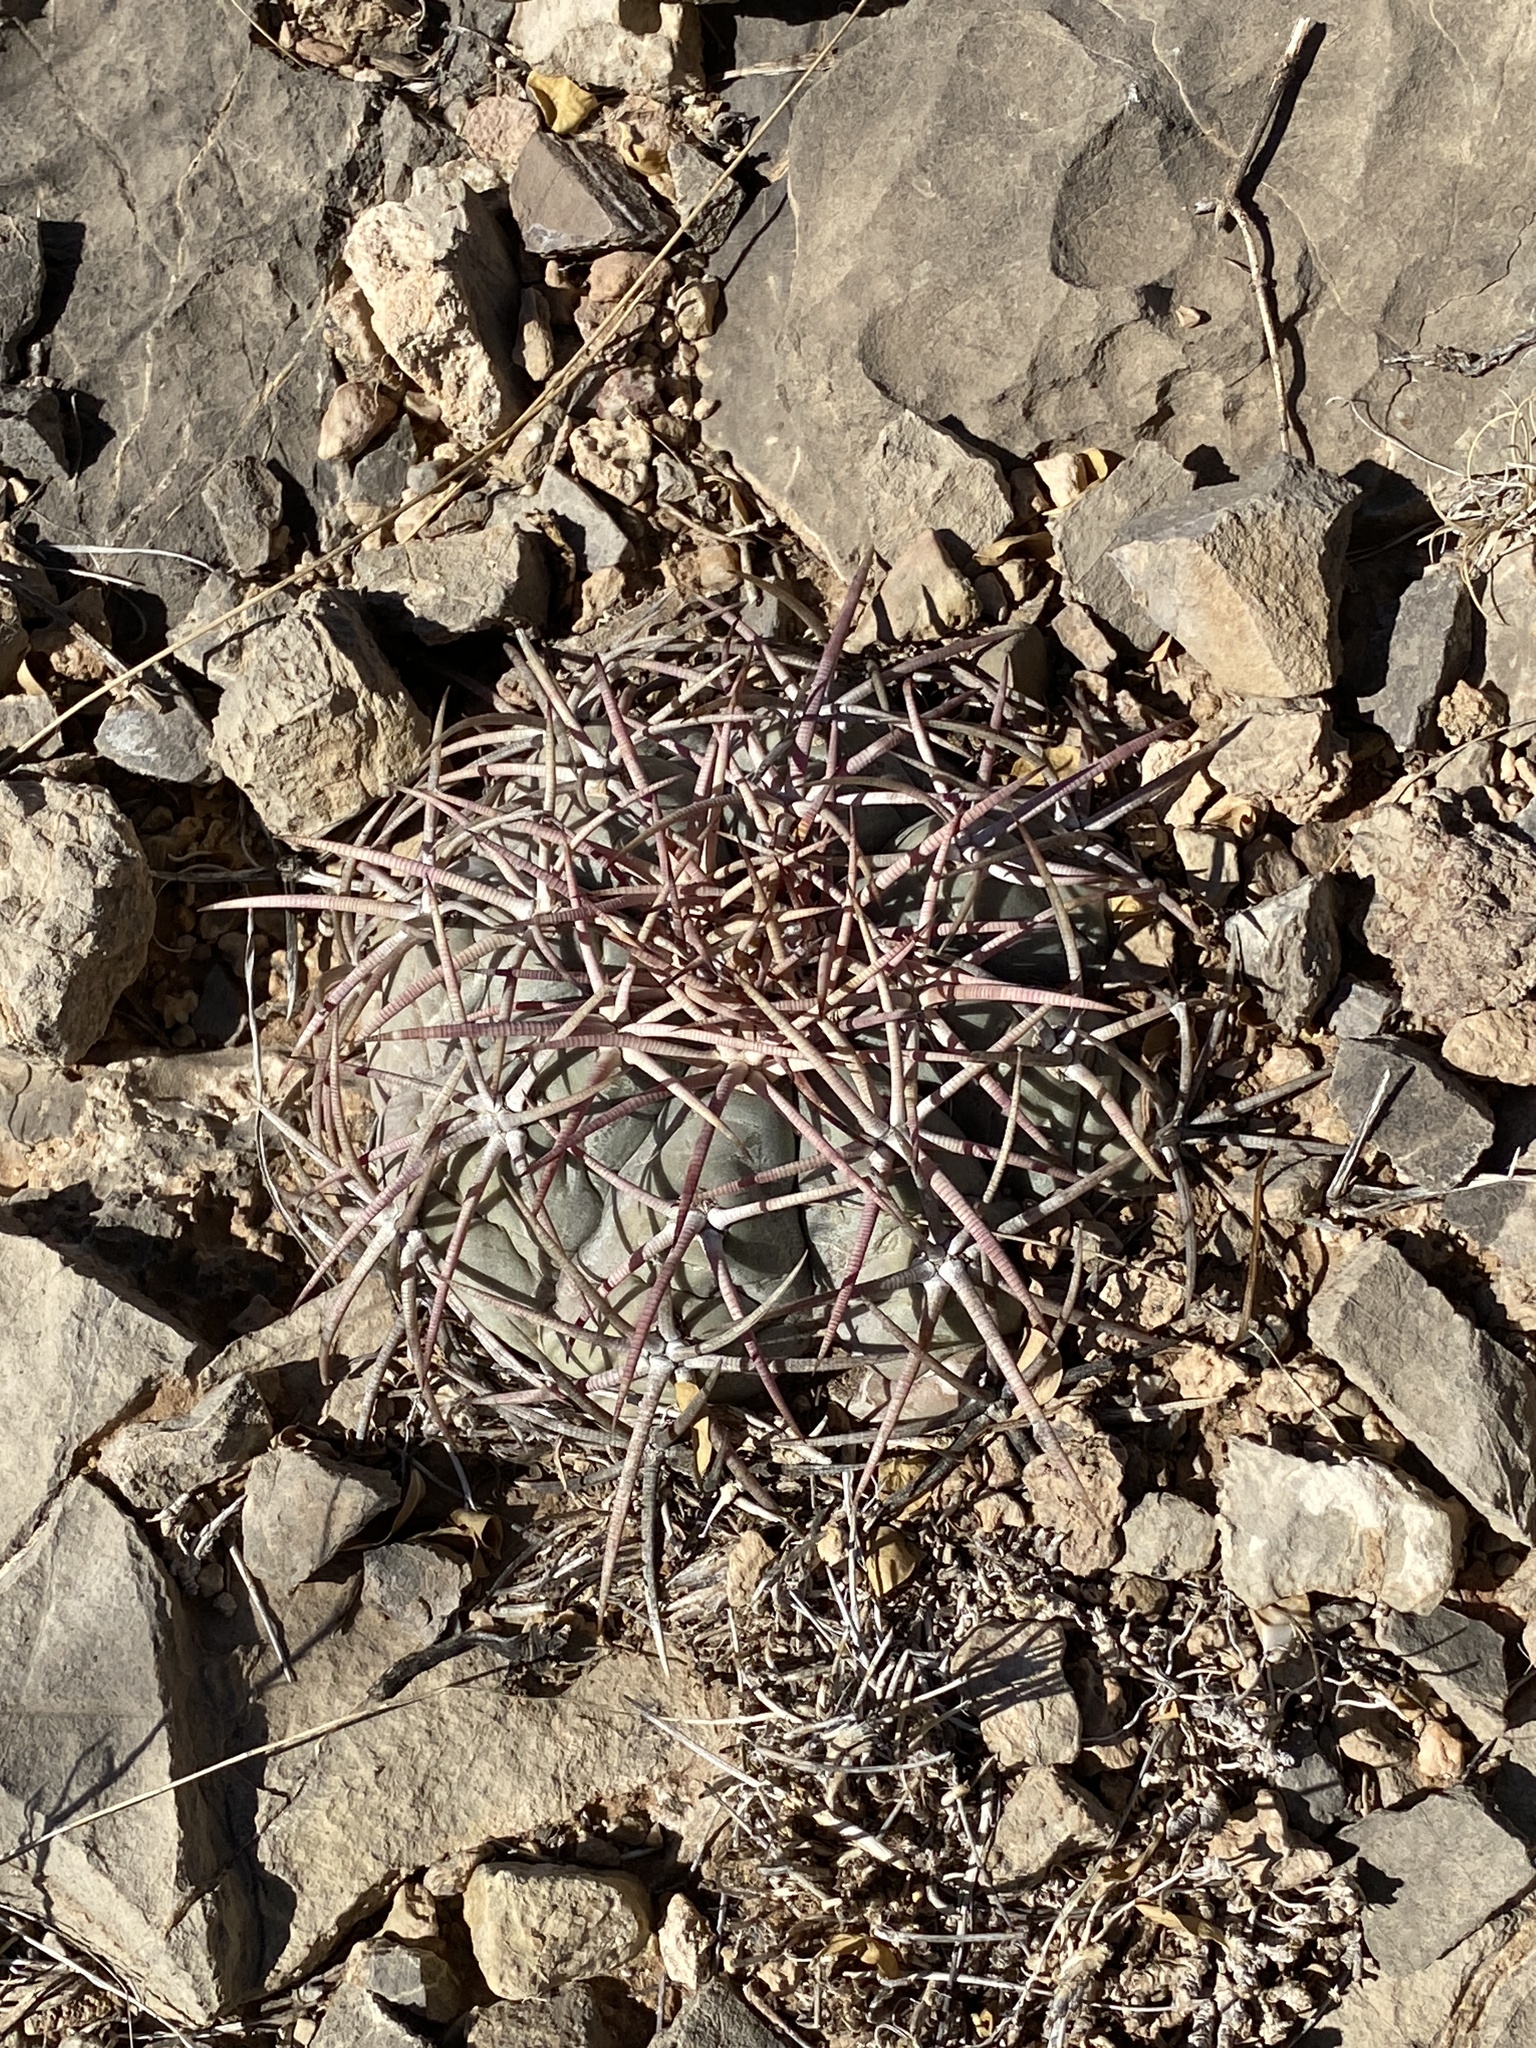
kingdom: Plantae
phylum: Tracheophyta
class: Magnoliopsida
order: Caryophyllales
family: Cactaceae
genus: Echinocactus
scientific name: Echinocactus horizonthalonius
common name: Devilshead
